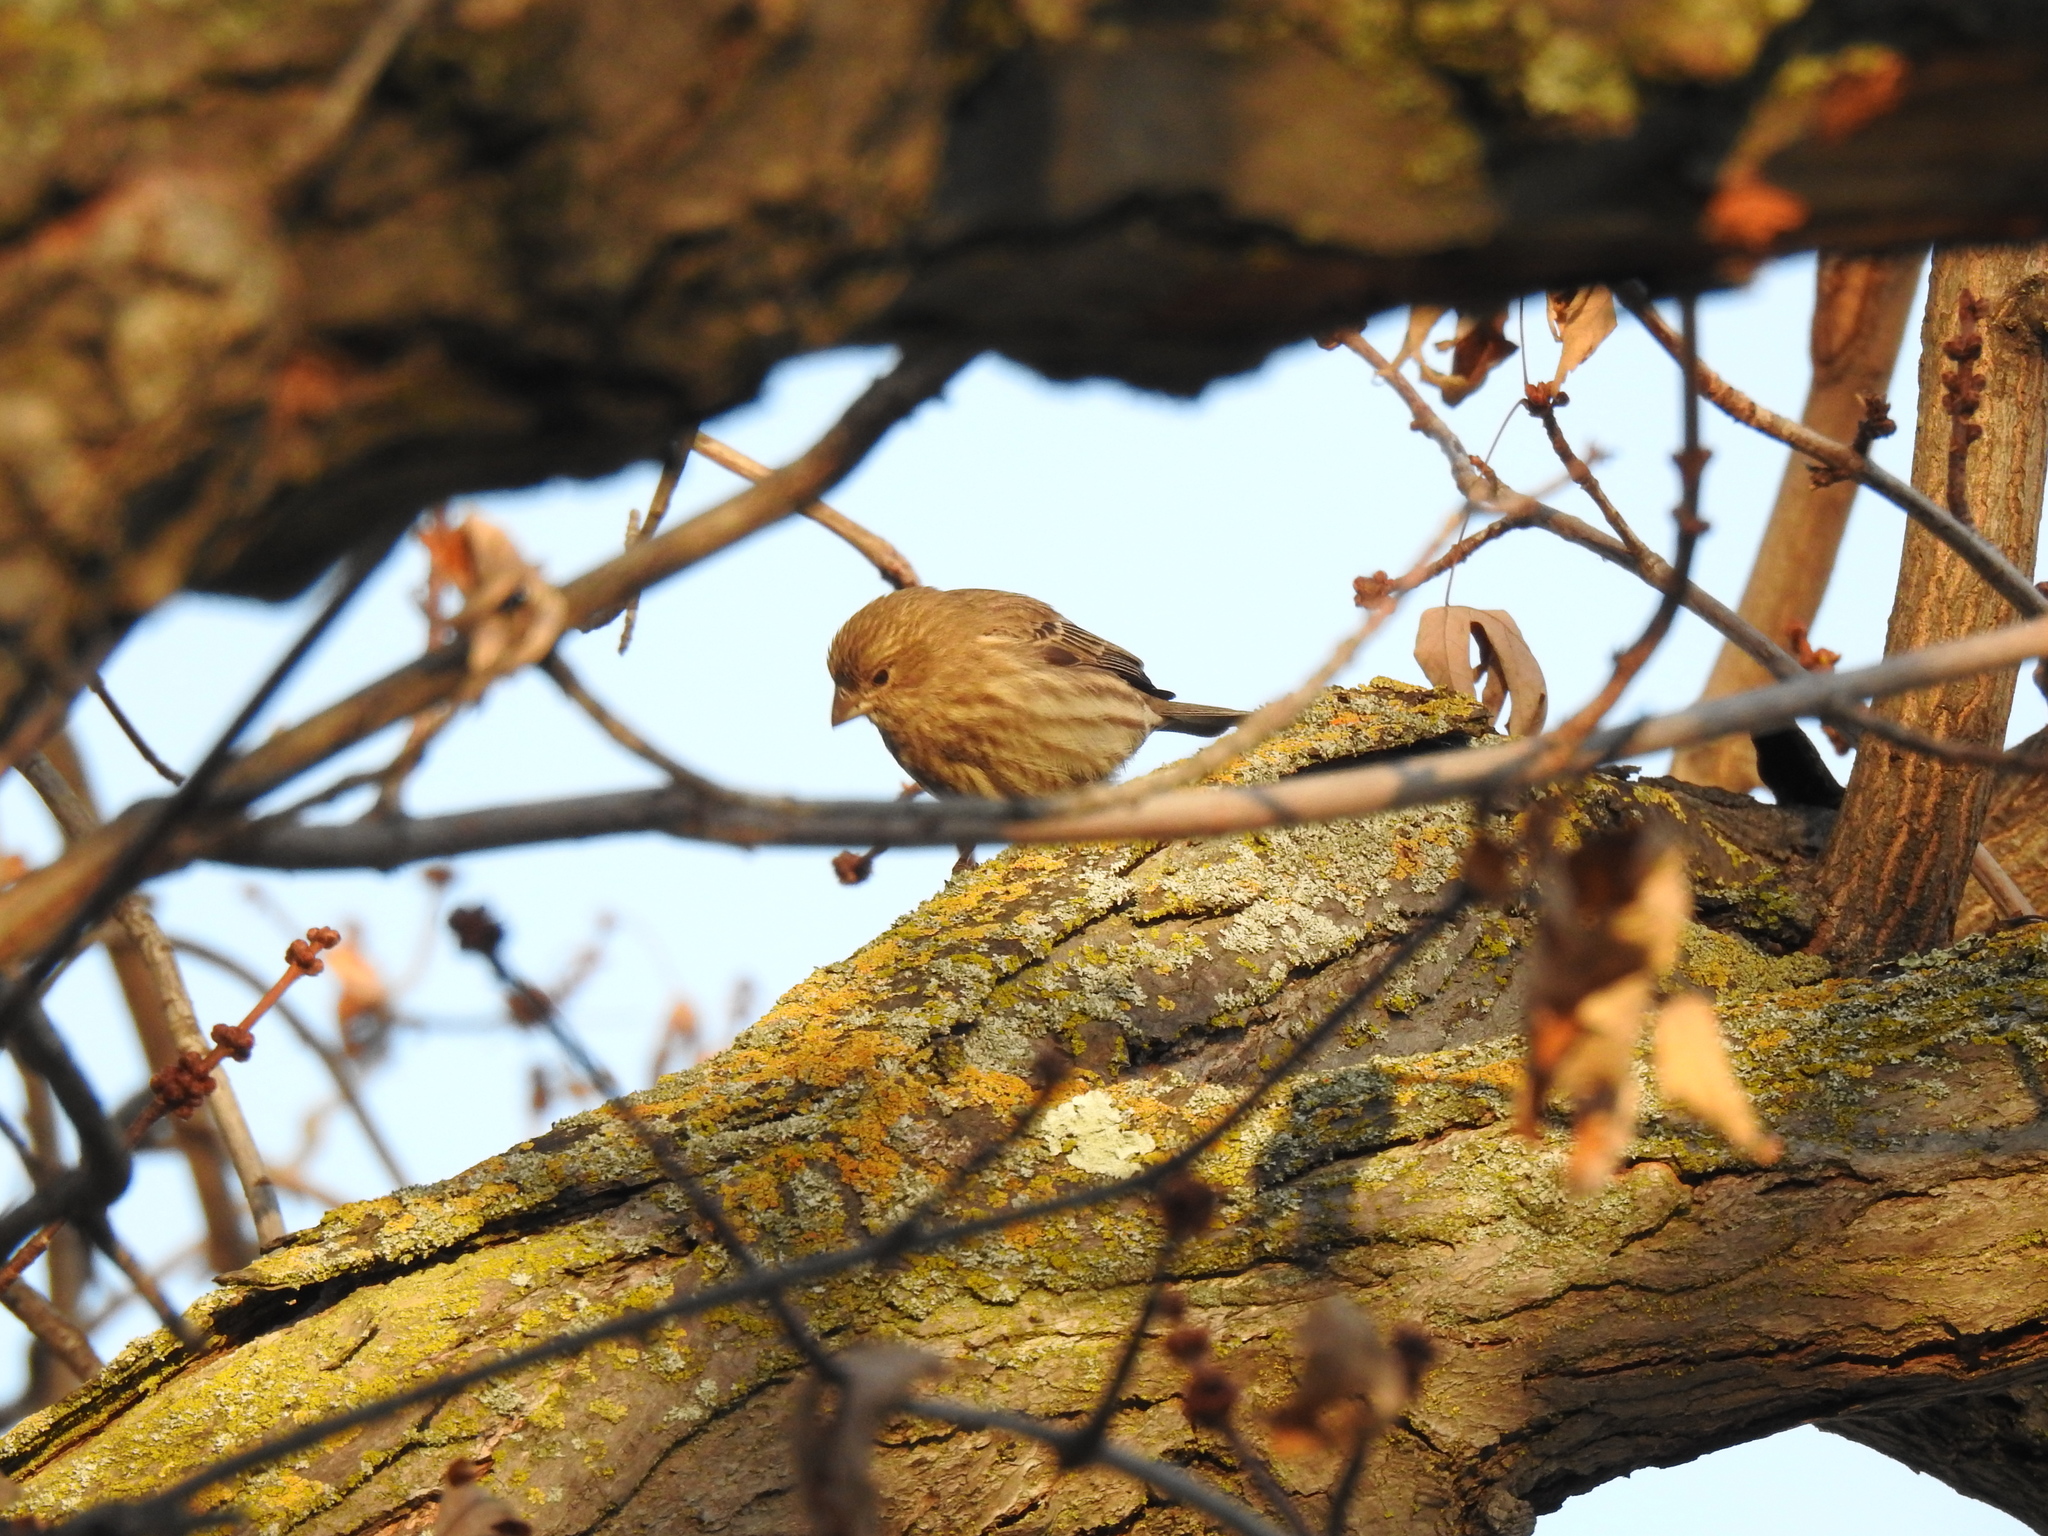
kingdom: Animalia
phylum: Chordata
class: Aves
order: Passeriformes
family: Fringillidae
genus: Haemorhous
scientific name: Haemorhous mexicanus
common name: House finch
